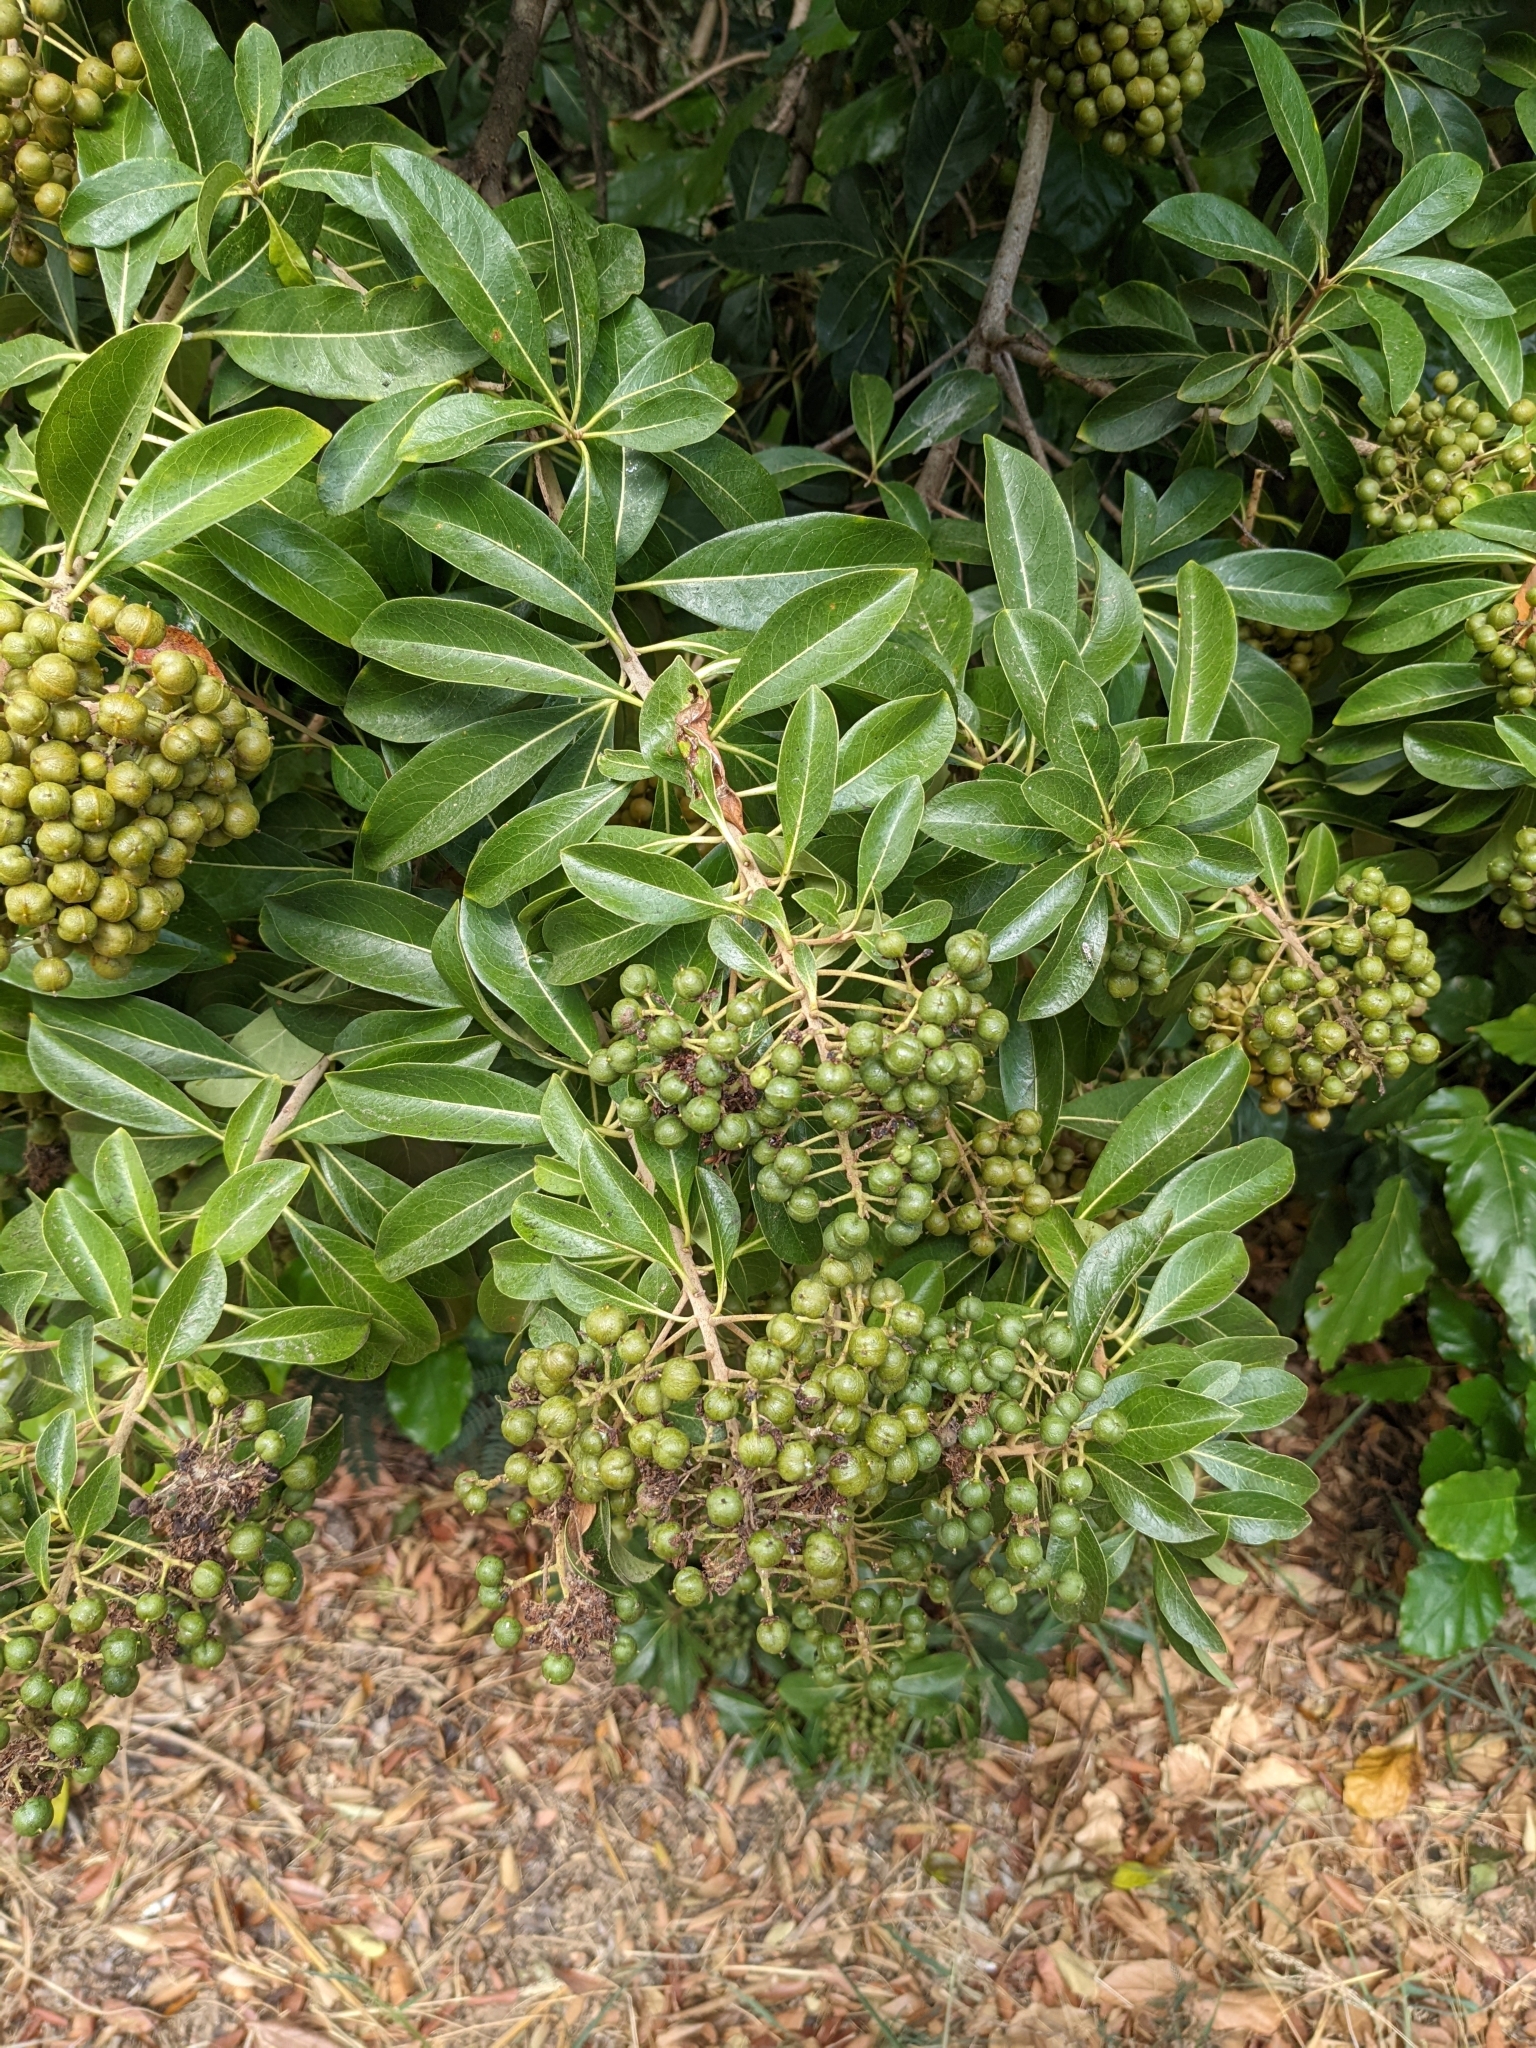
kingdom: Plantae
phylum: Tracheophyta
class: Magnoliopsida
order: Apiales
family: Pittosporaceae
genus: Pittosporum
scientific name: Pittosporum pentandrum
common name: Taiwanese cheesewood
